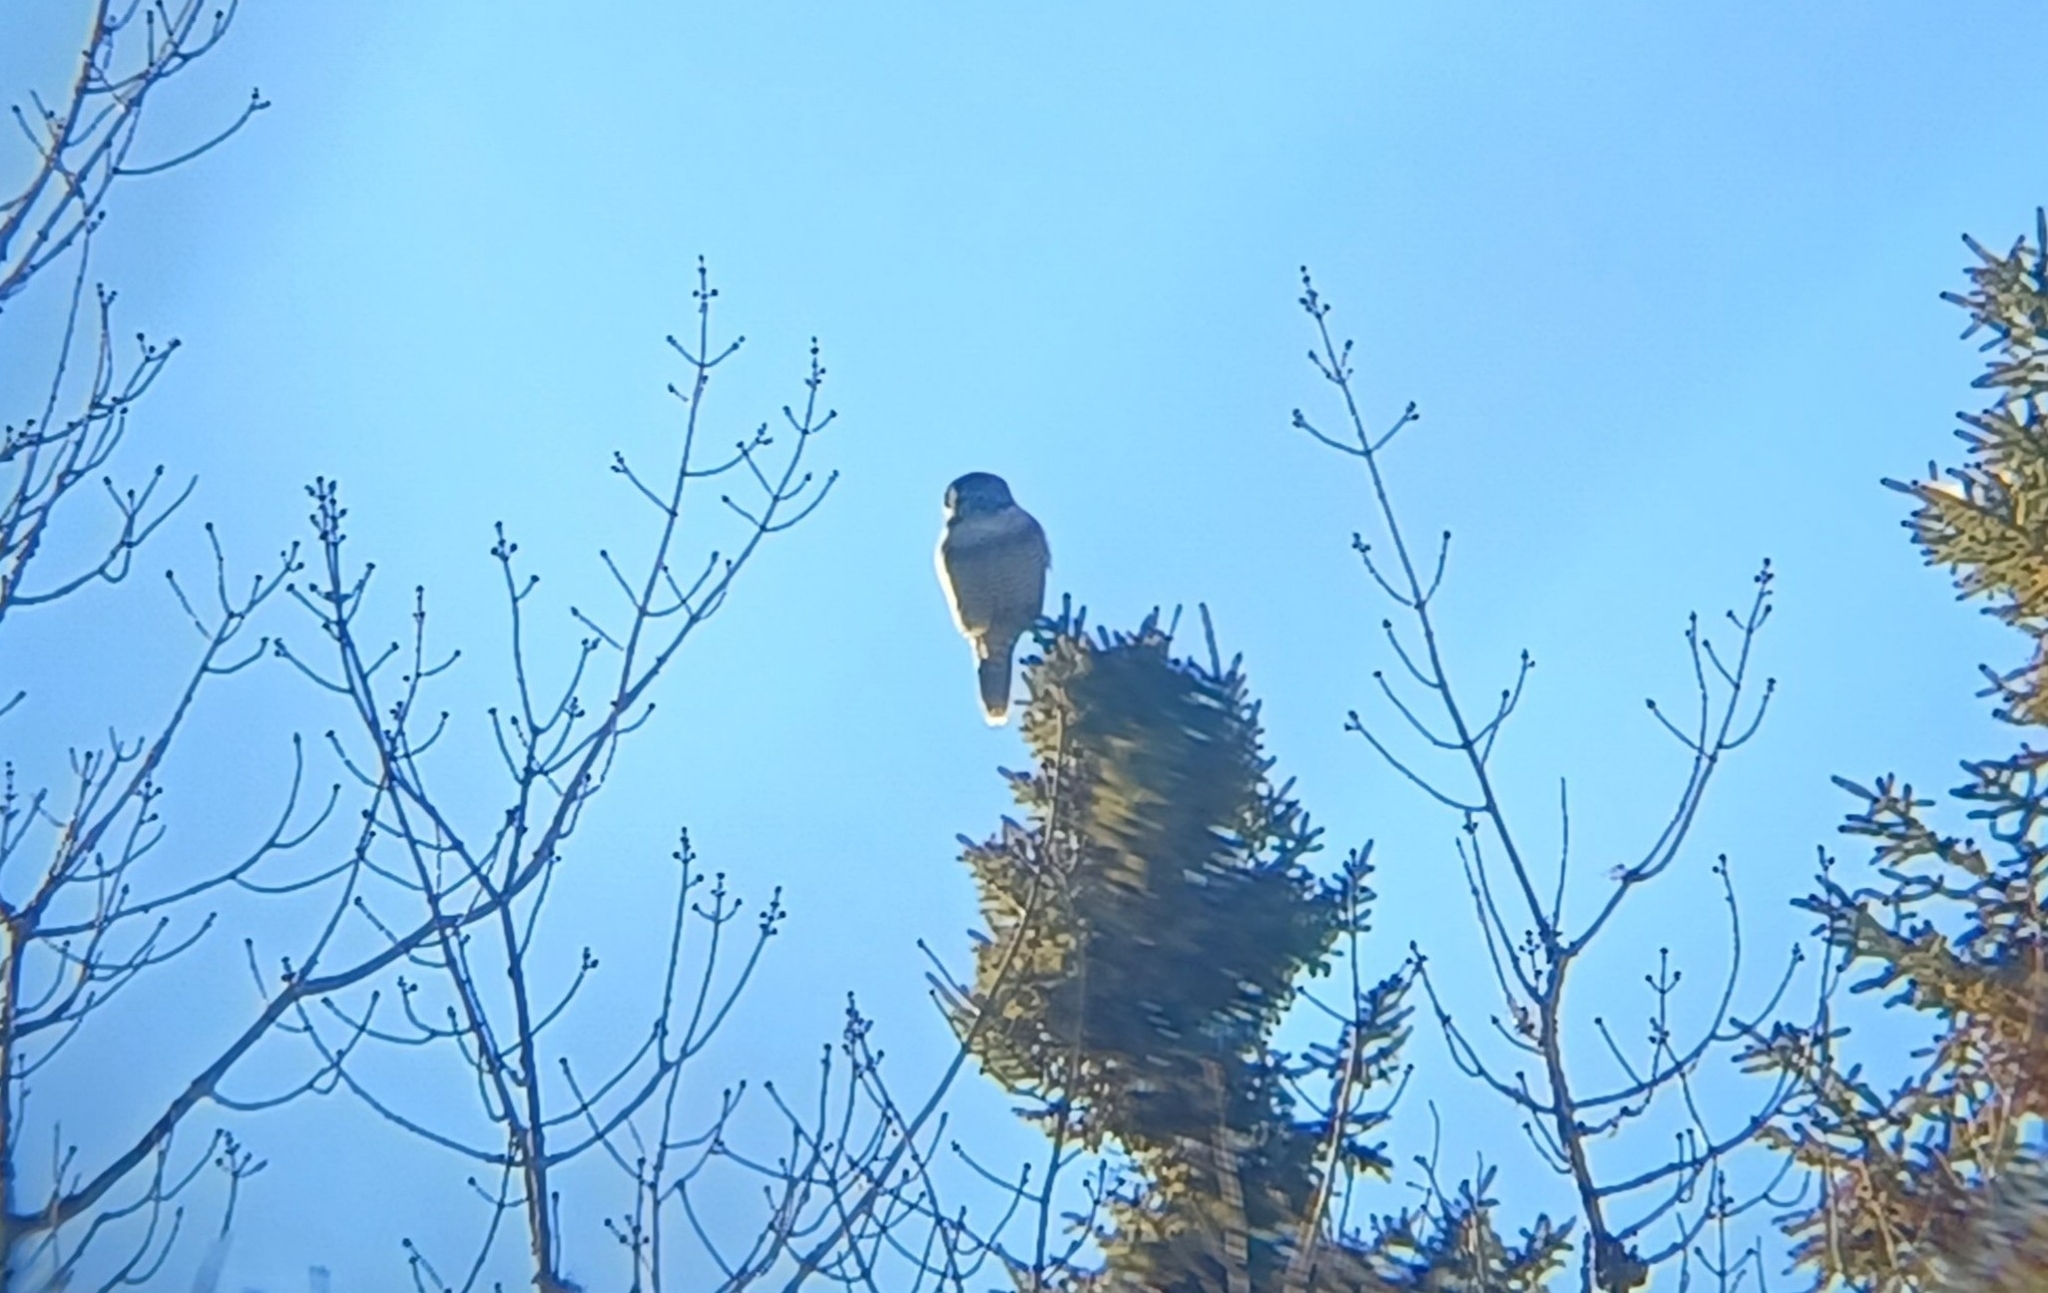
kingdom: Animalia
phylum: Chordata
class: Aves
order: Strigiformes
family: Strigidae
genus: Surnia
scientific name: Surnia ulula
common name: Northern hawk-owl
